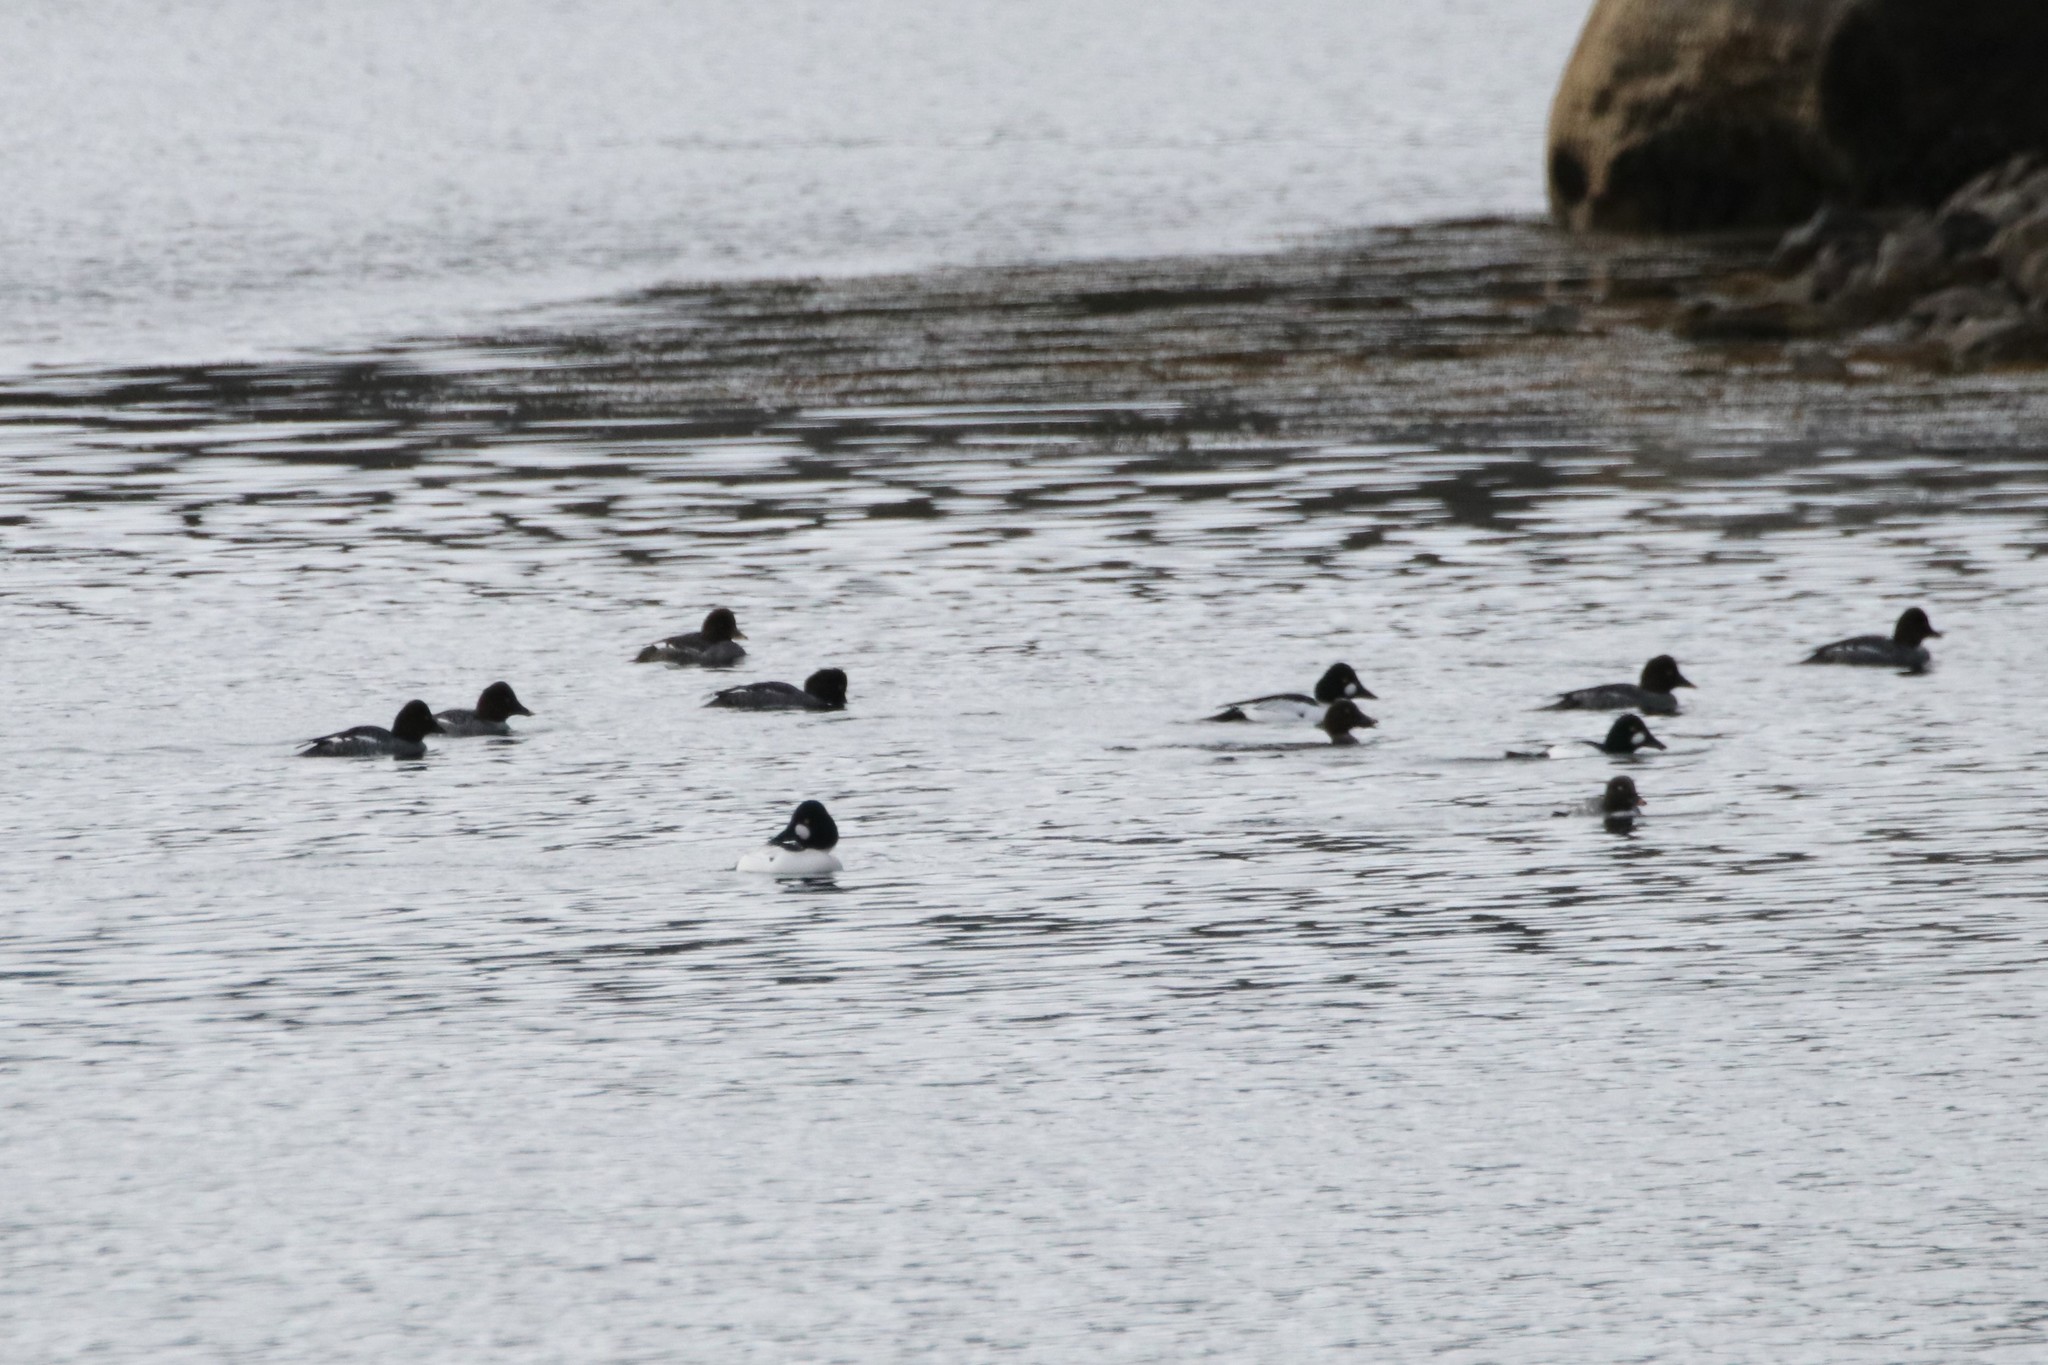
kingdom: Animalia
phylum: Chordata
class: Aves
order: Anseriformes
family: Anatidae
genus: Bucephala
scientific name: Bucephala clangula
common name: Common goldeneye
